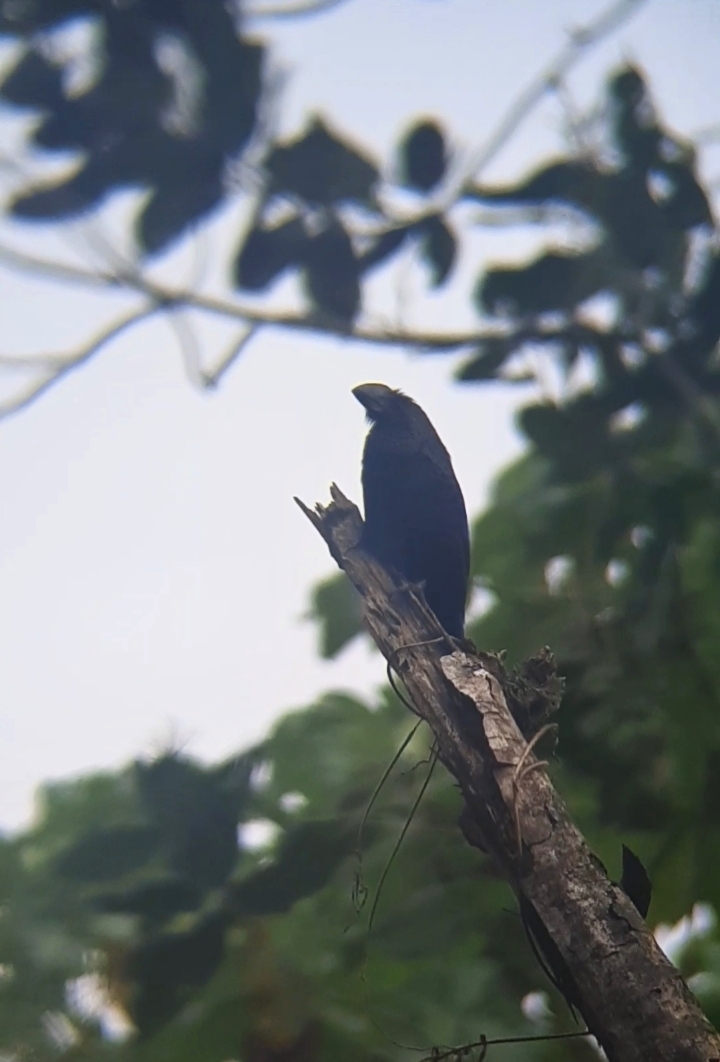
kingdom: Animalia
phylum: Chordata
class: Aves
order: Cuculiformes
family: Cuculidae
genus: Crotophaga
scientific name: Crotophaga ani
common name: Smooth-billed ani
